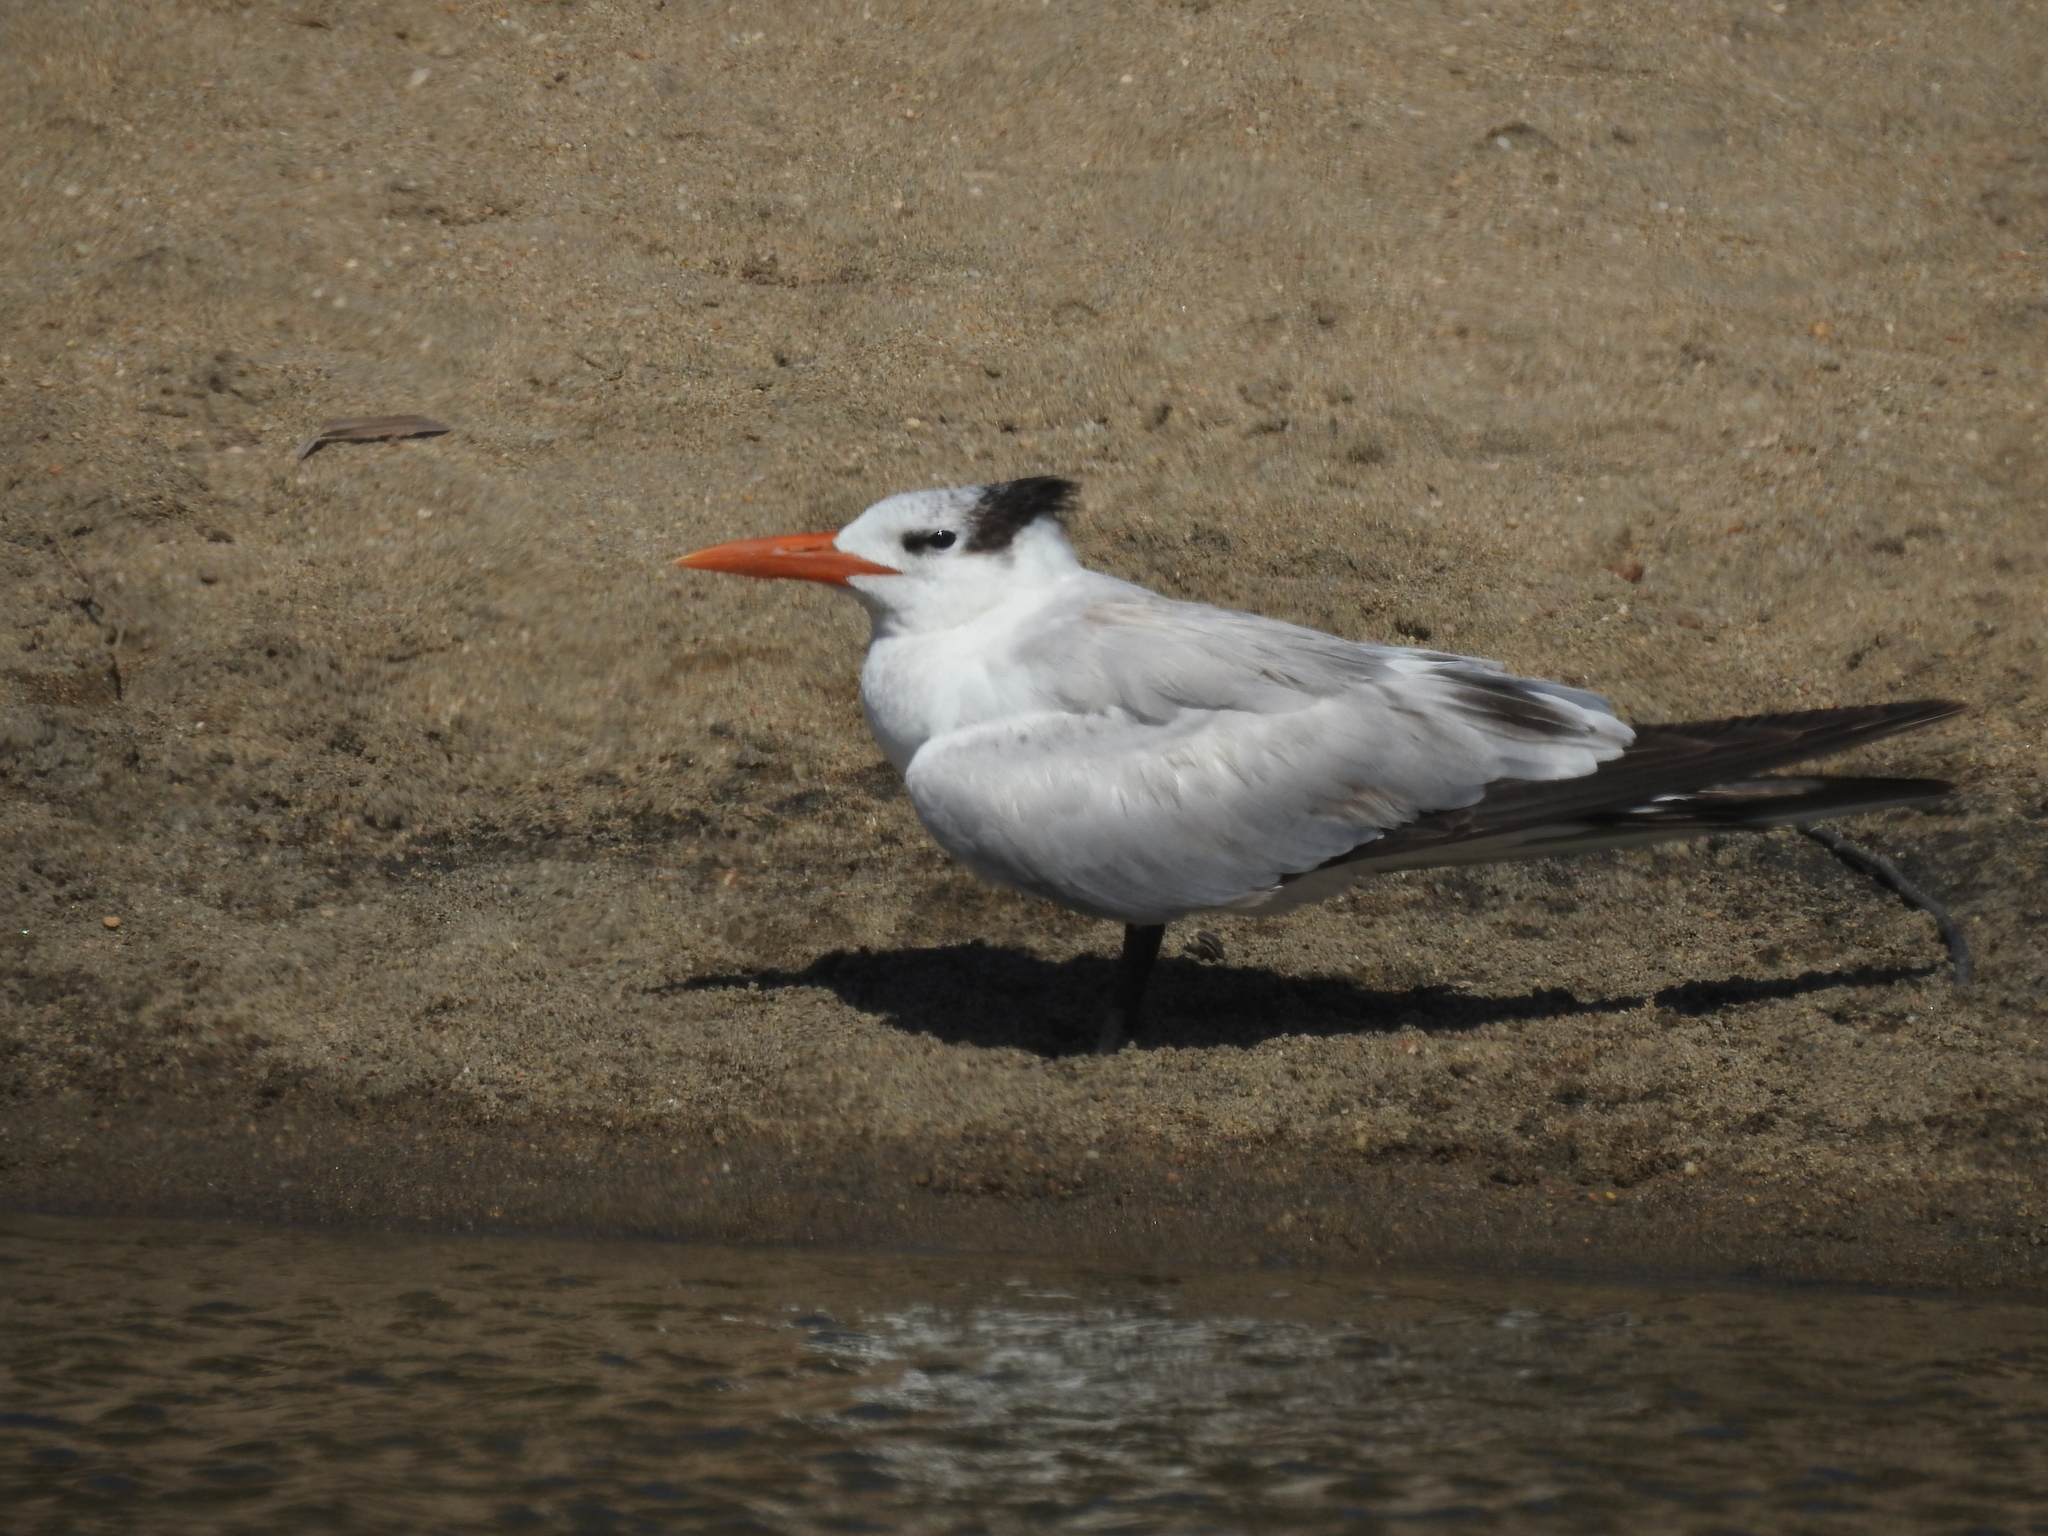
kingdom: Animalia
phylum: Chordata
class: Aves
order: Charadriiformes
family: Laridae
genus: Thalasseus
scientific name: Thalasseus maximus
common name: Royal tern
